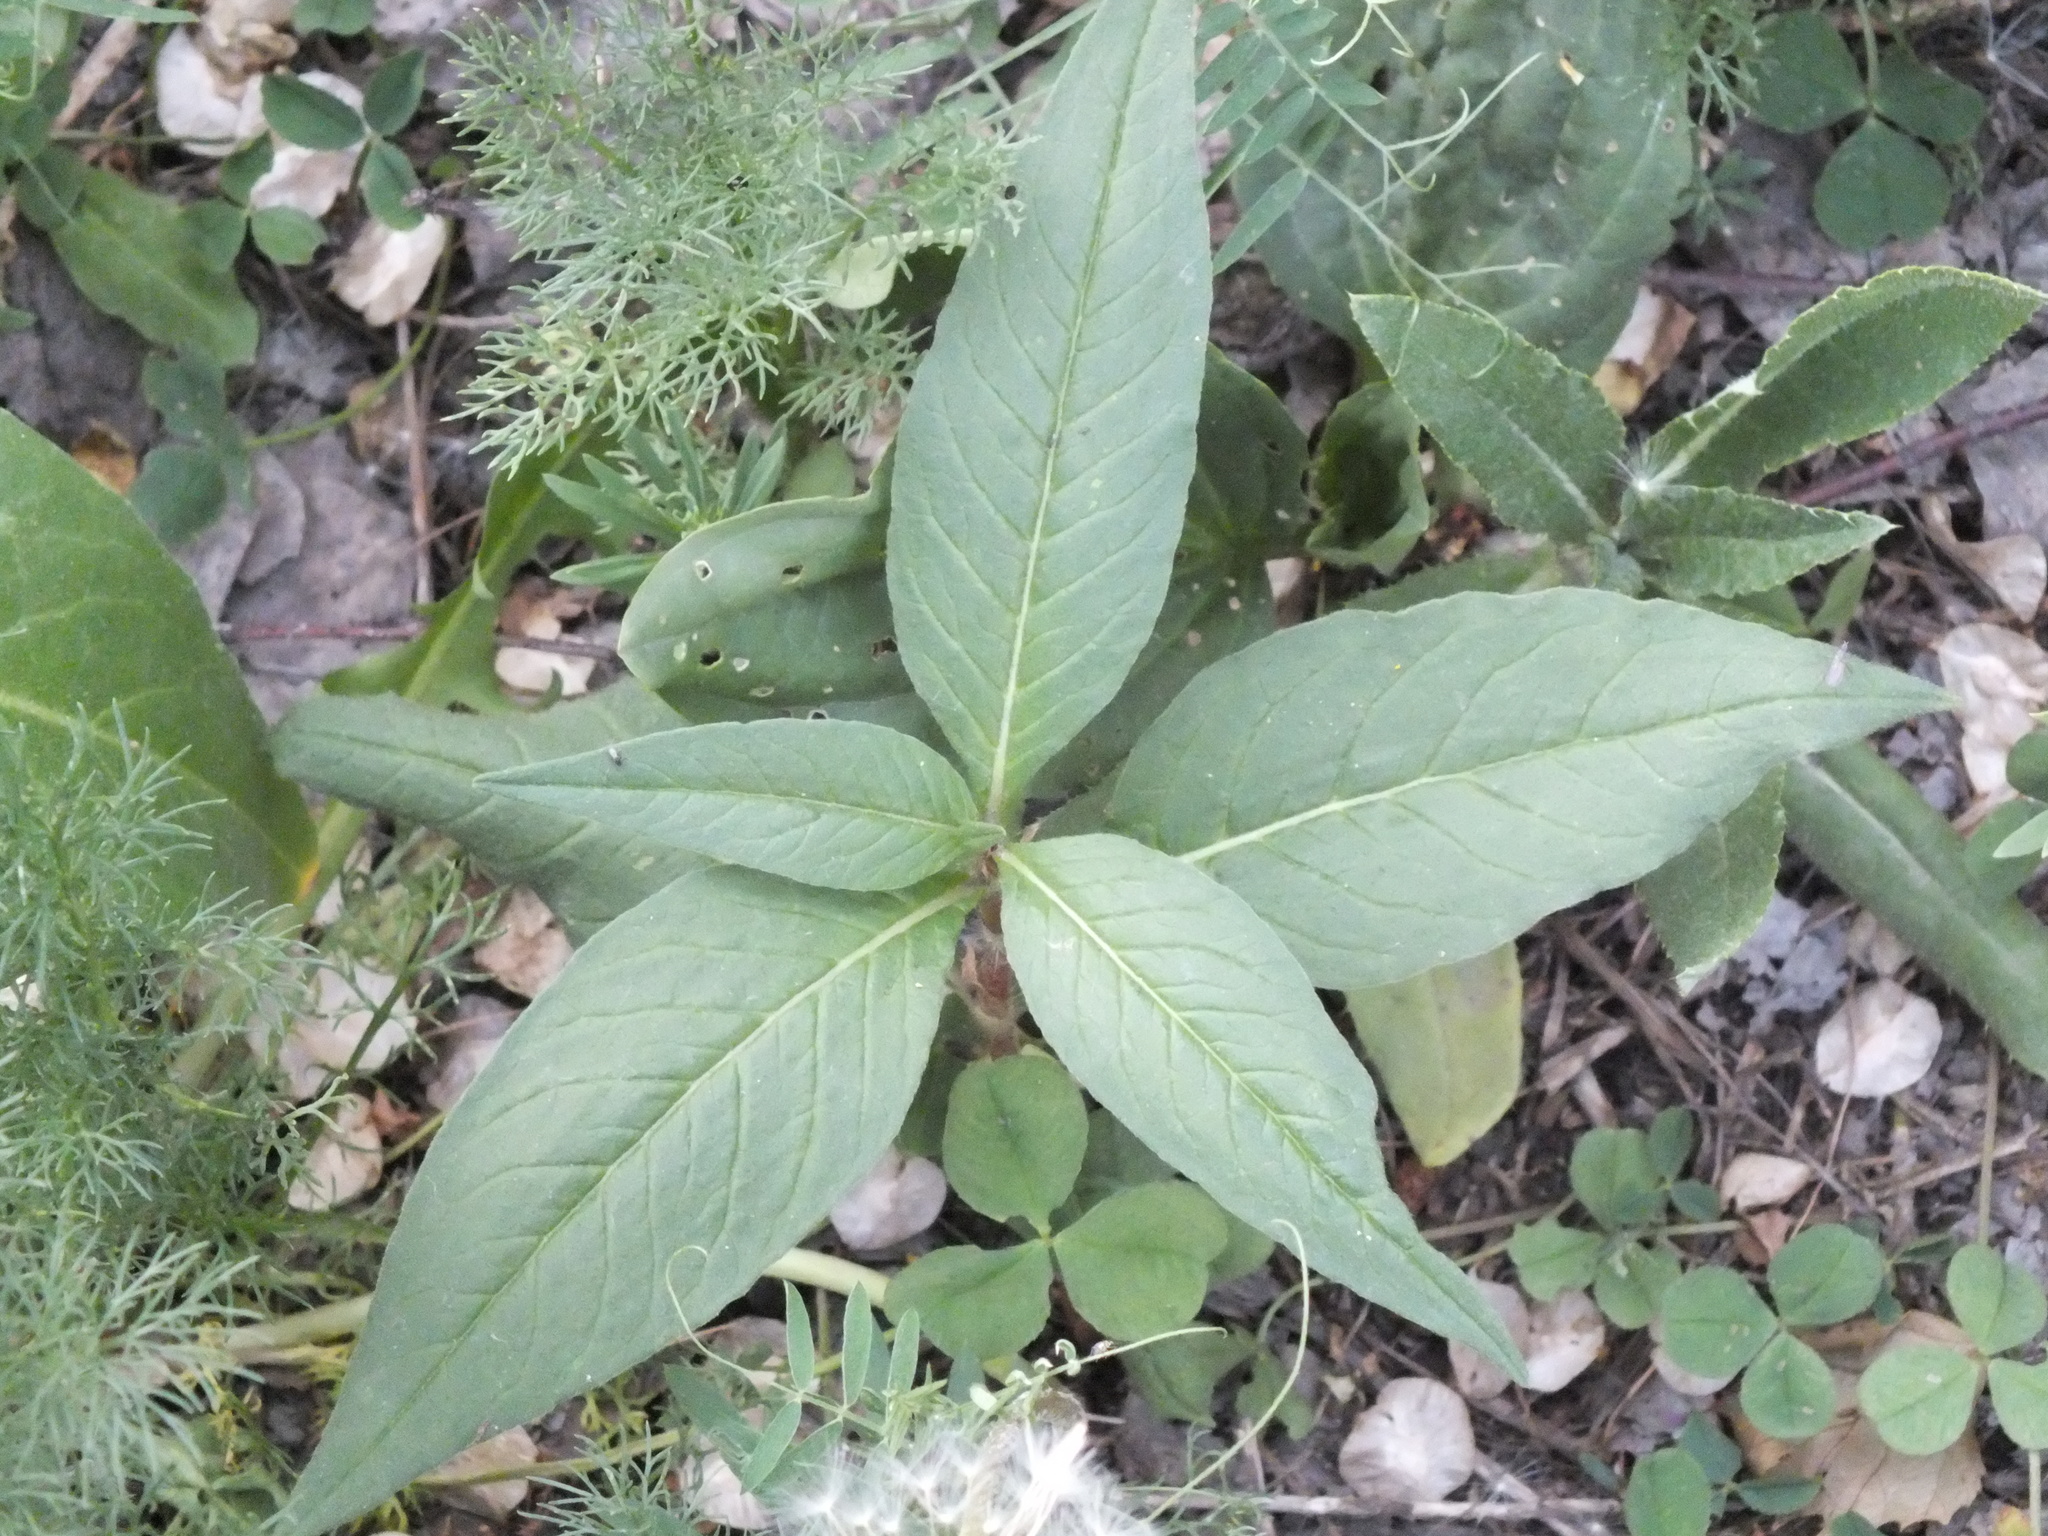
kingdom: Plantae
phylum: Tracheophyta
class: Magnoliopsida
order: Caryophyllales
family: Polygonaceae
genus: Koenigia
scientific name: Koenigia alpina
